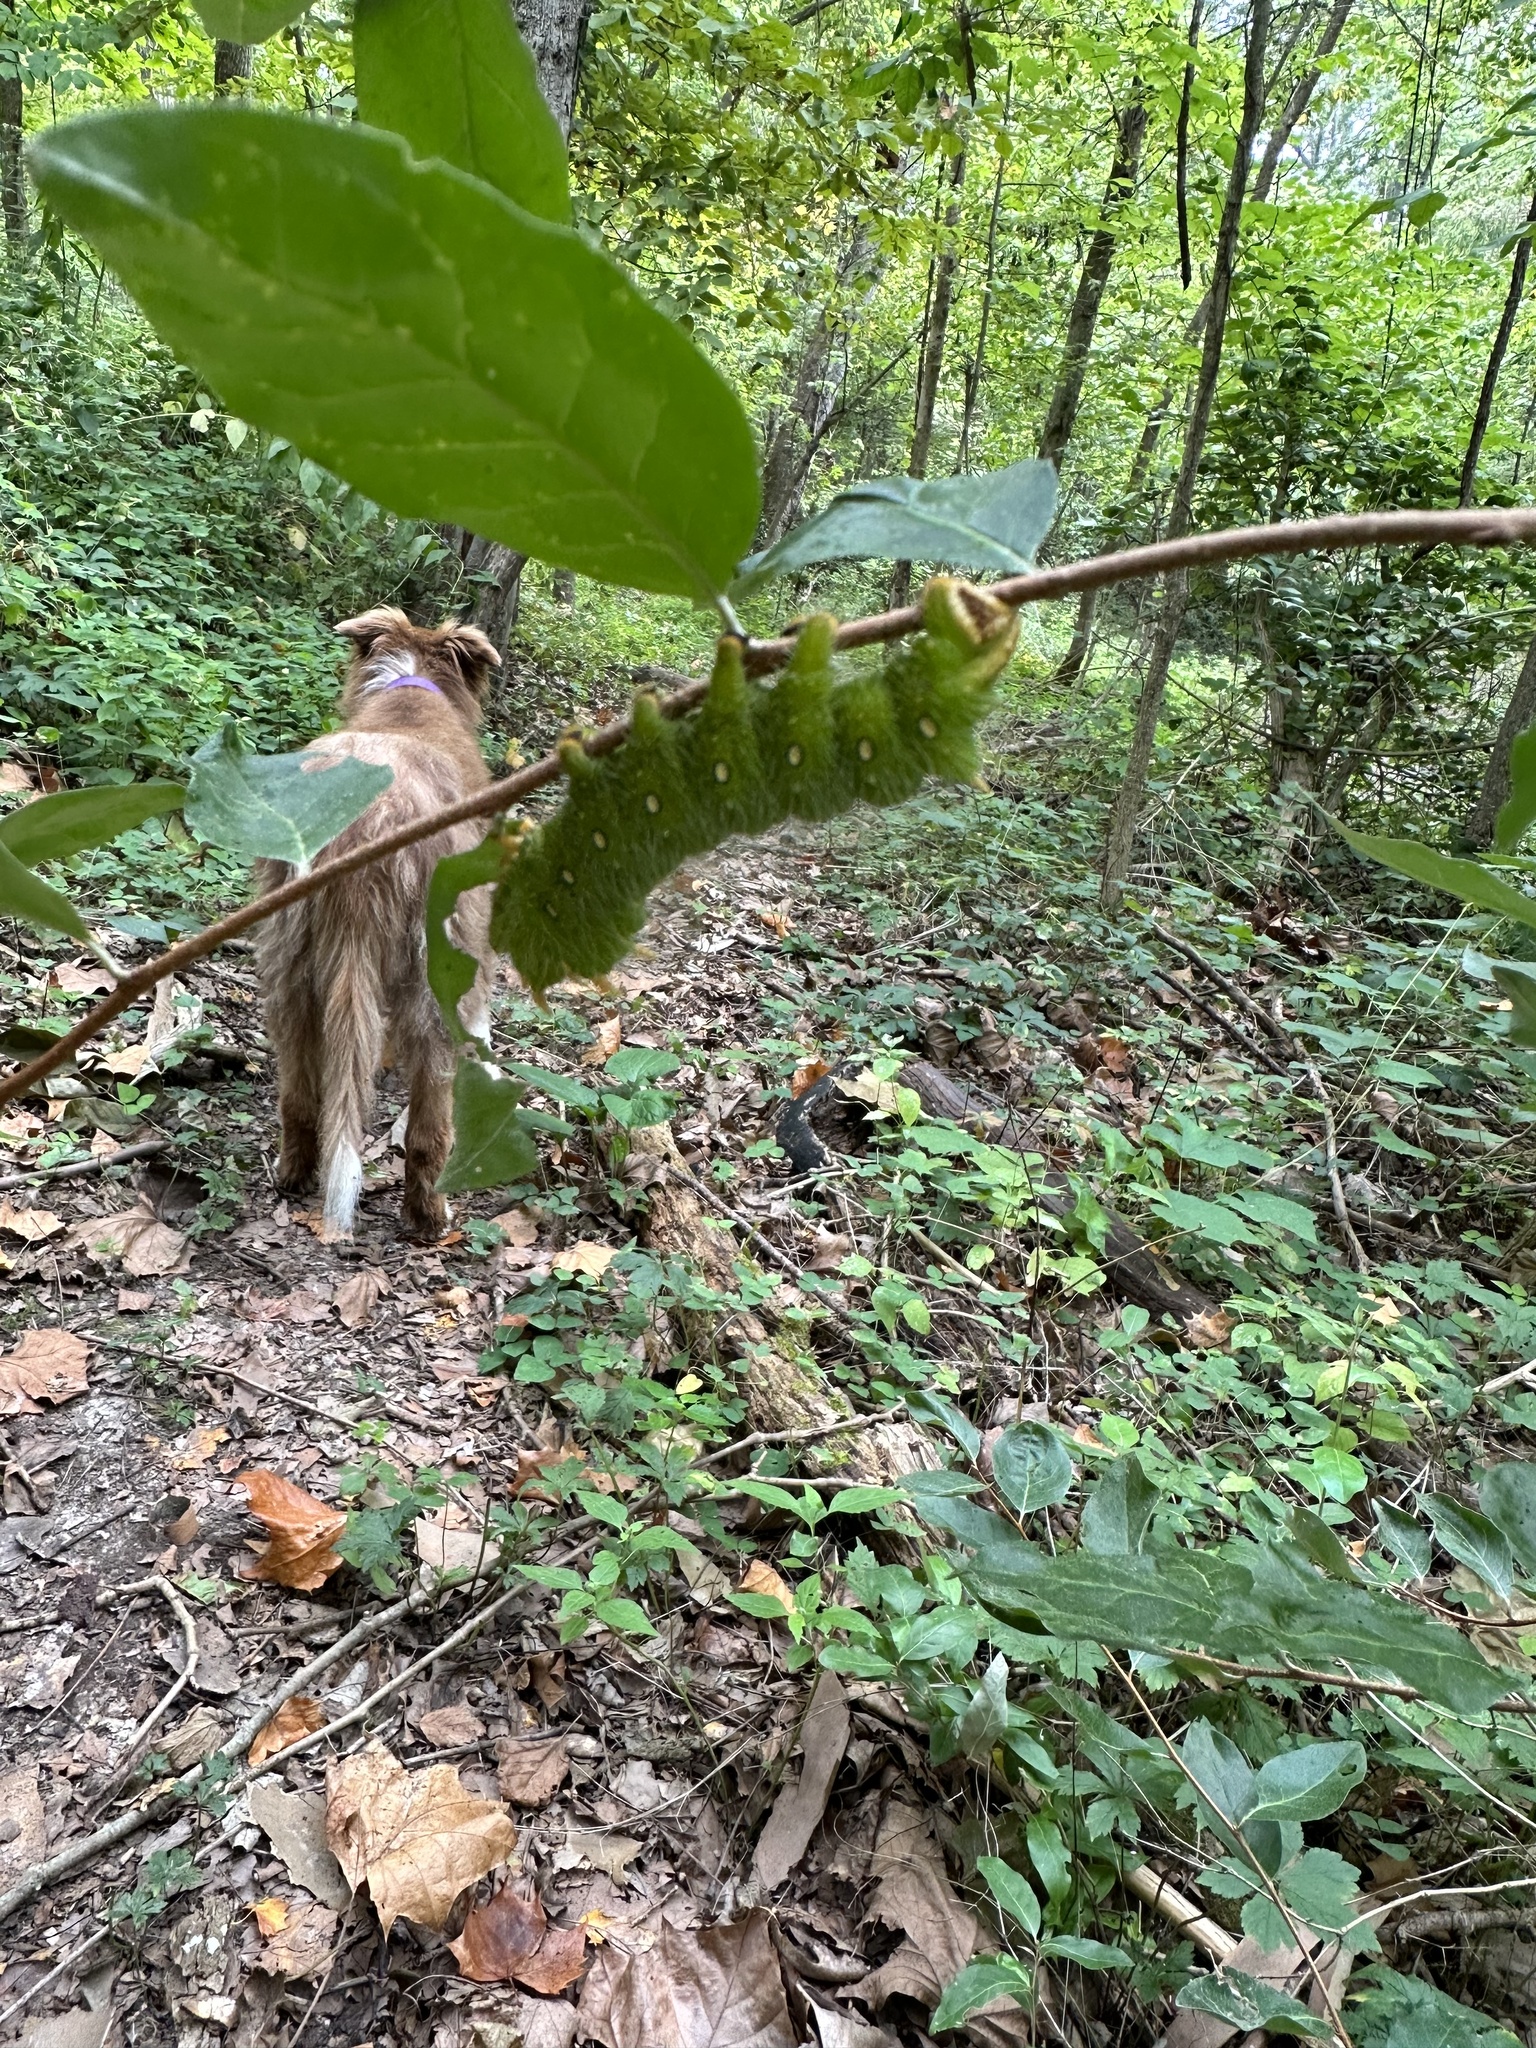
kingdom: Animalia
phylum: Arthropoda
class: Insecta
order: Lepidoptera
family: Saturniidae
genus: Eacles
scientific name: Eacles imperialis
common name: Imperial moth
